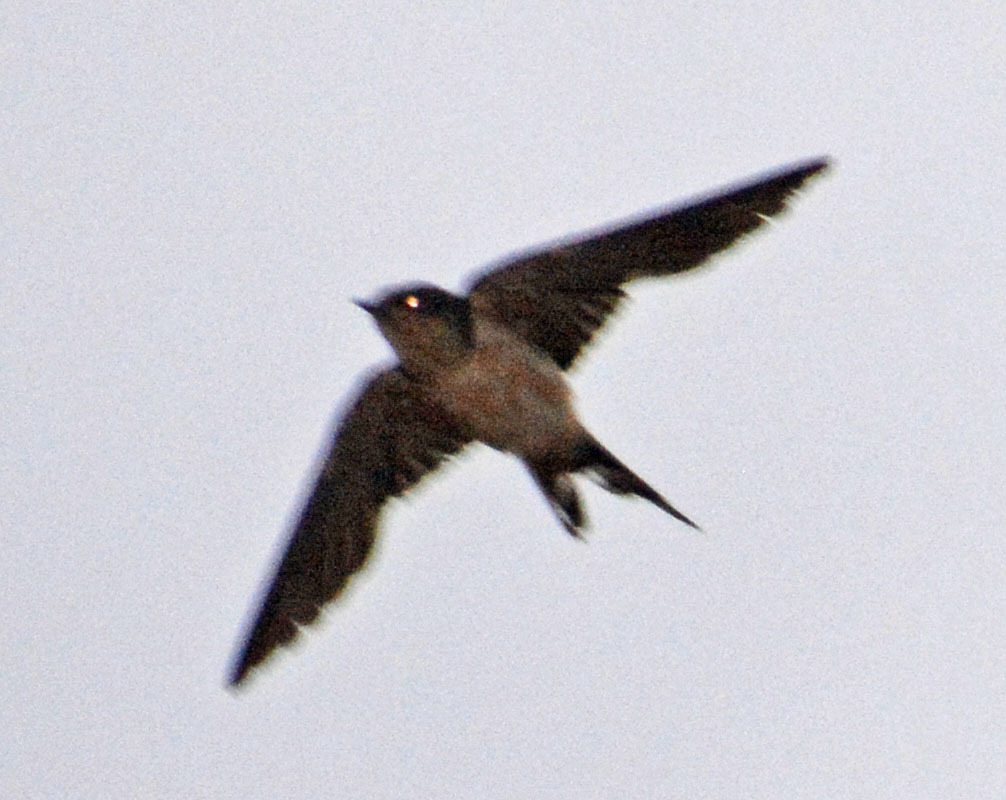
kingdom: Animalia
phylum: Chordata
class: Aves
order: Passeriformes
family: Hirundinidae
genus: Hirundo
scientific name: Hirundo rustica
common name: Barn swallow
